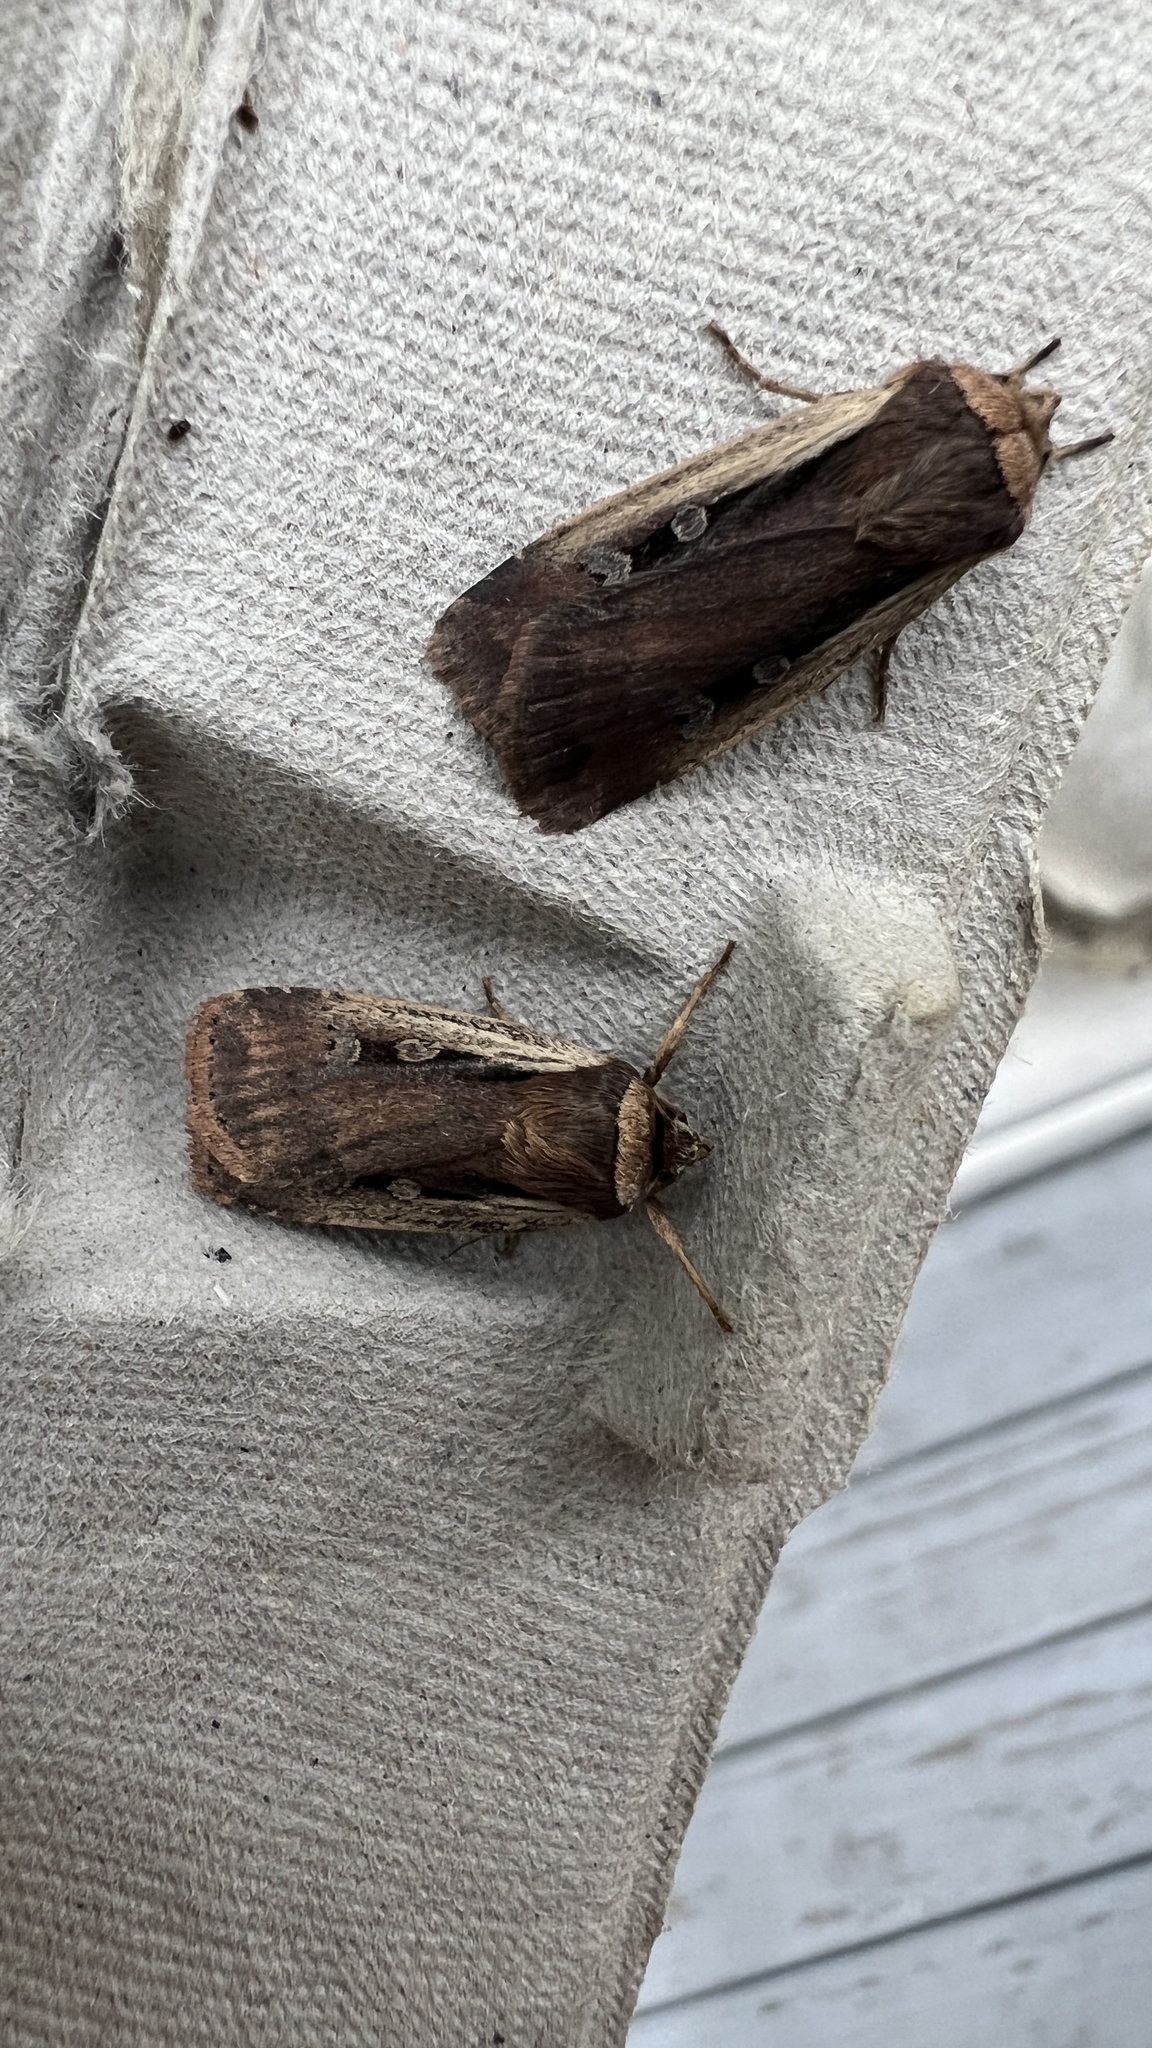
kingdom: Animalia
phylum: Arthropoda
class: Insecta
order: Lepidoptera
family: Noctuidae
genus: Ochropleura
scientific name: Ochropleura implecta
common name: Flame-shouldered dart
